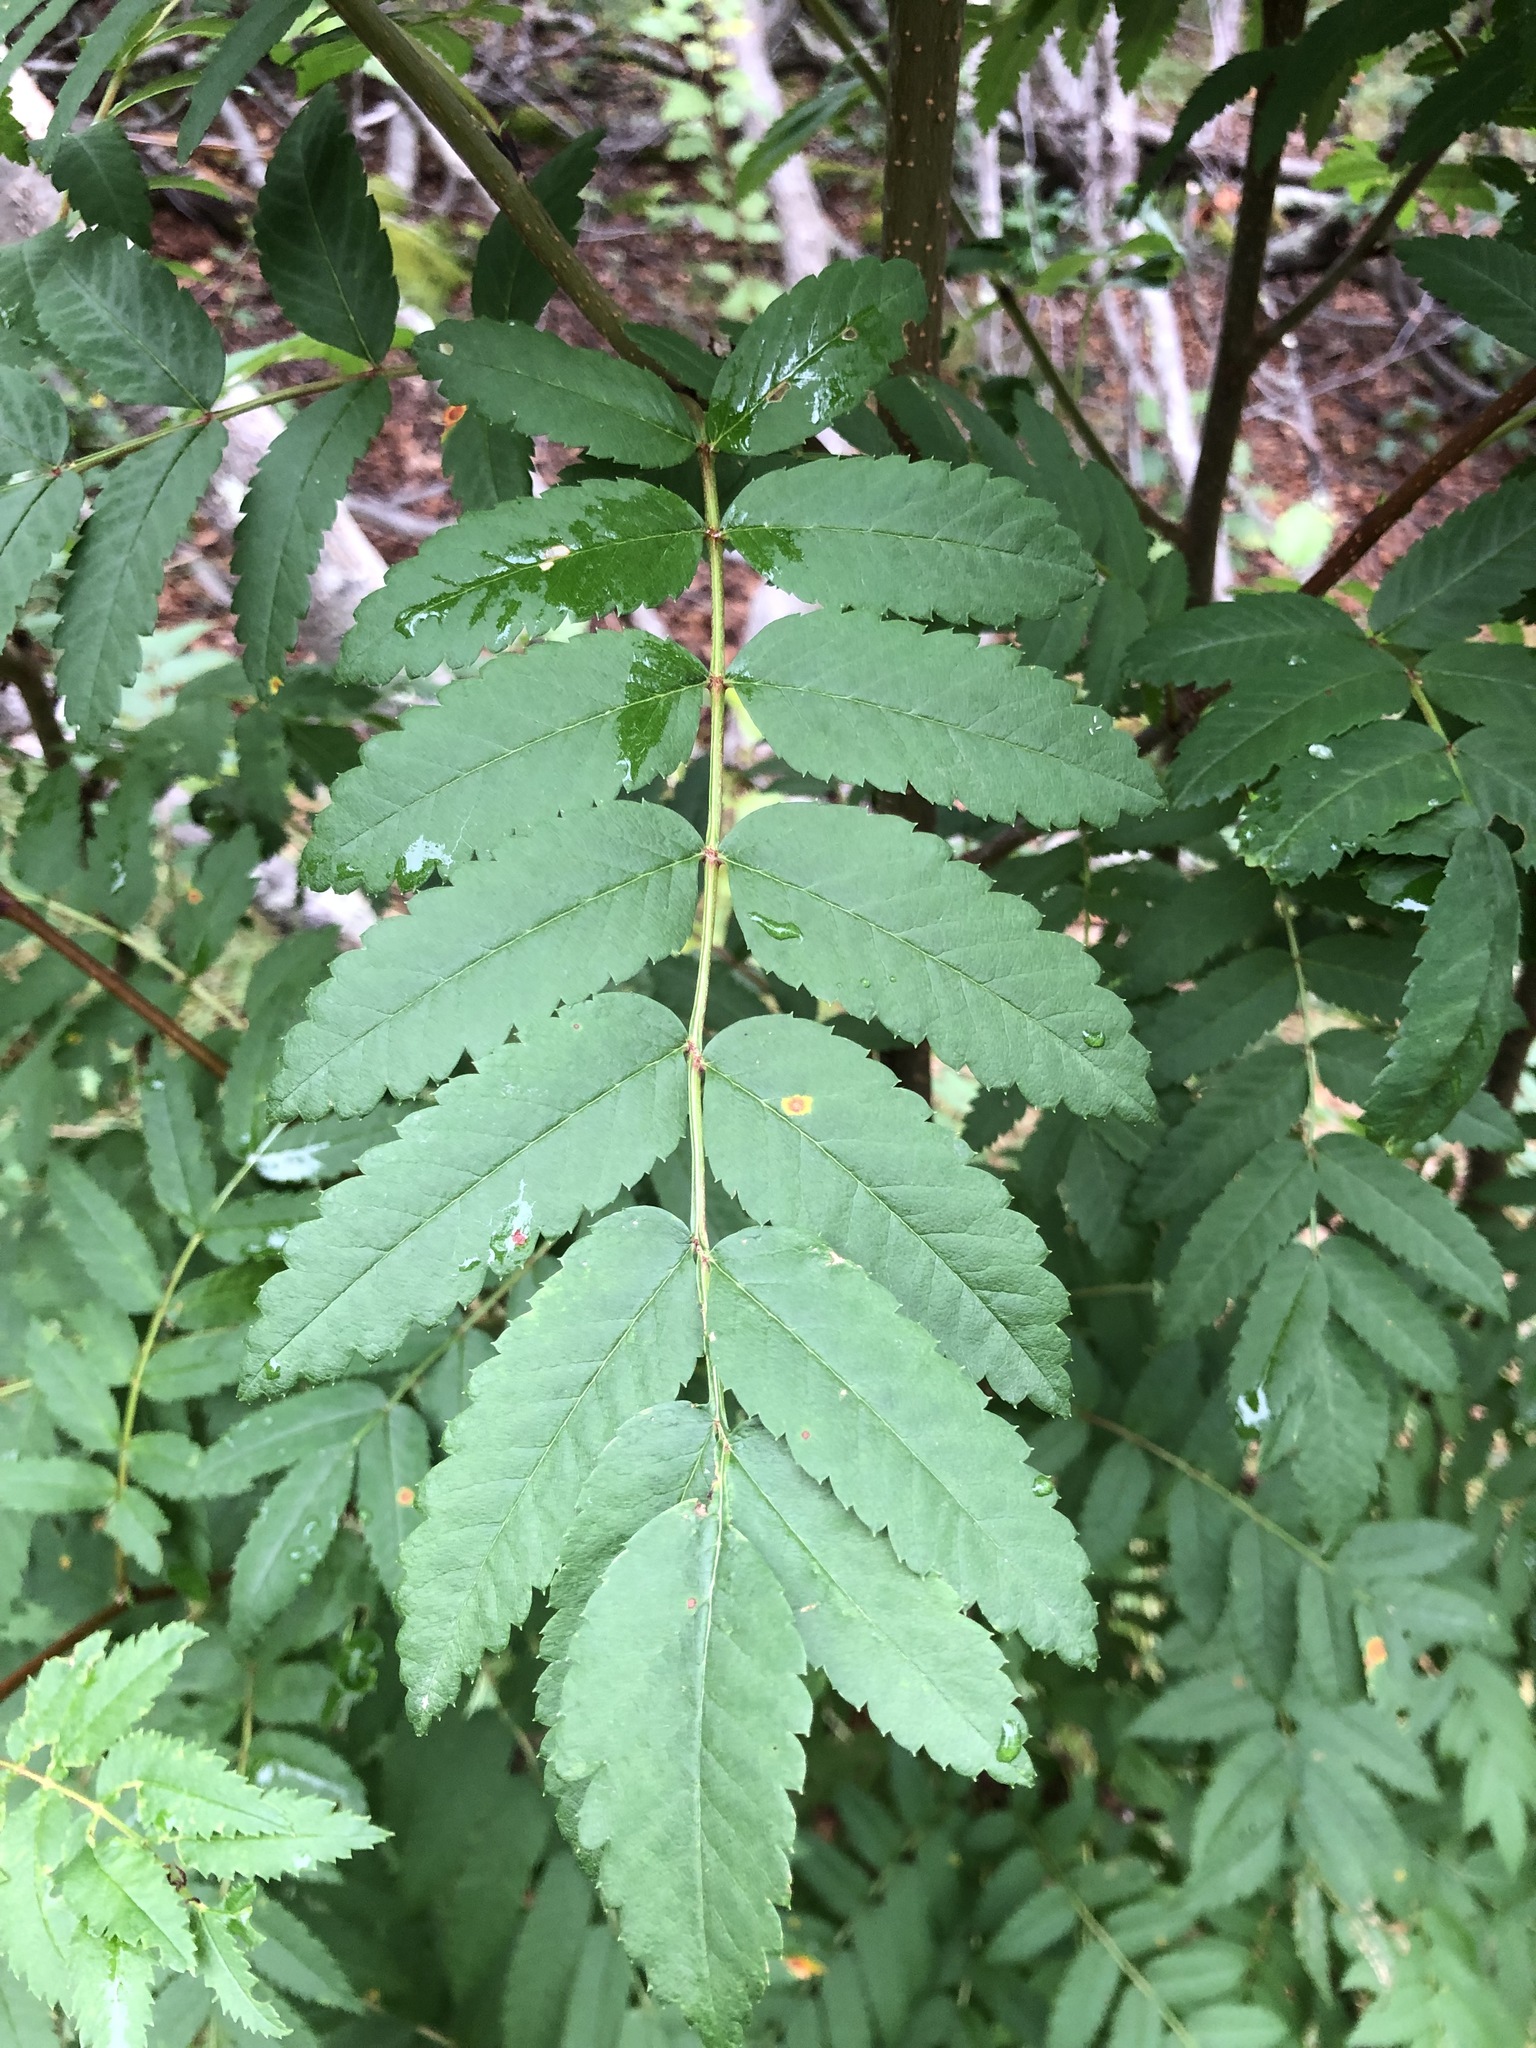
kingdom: Plantae
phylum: Tracheophyta
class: Magnoliopsida
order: Rosales
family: Rosaceae
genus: Sorbus
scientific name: Sorbus aucuparia
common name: Rowan
